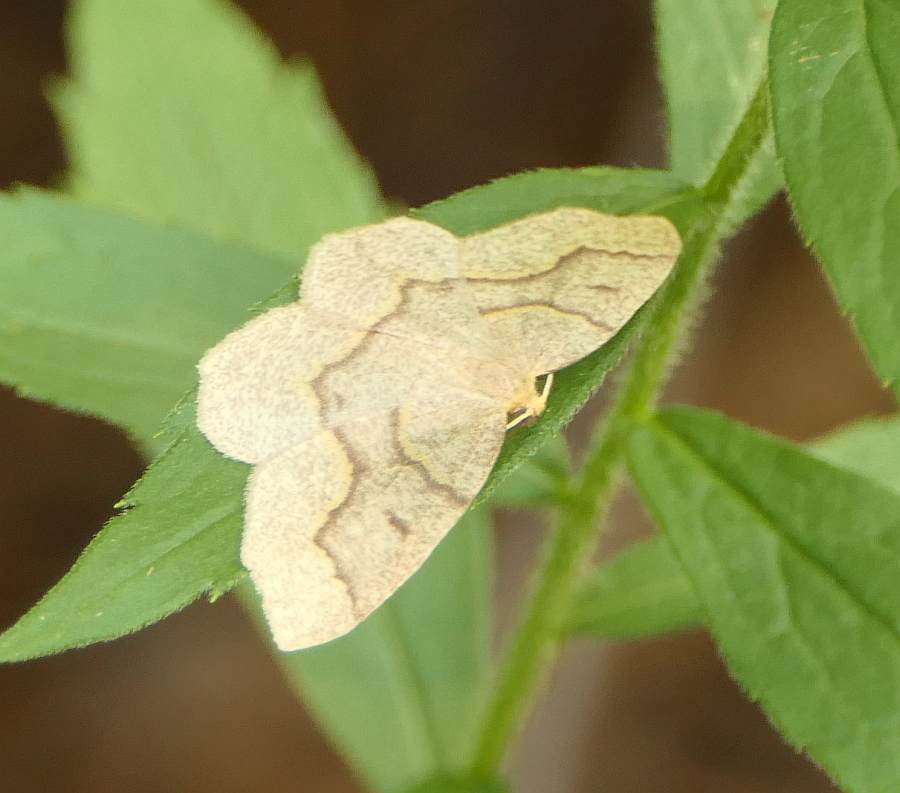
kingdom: Animalia
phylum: Arthropoda
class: Insecta
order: Lepidoptera
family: Geometridae
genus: Lambdina
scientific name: Lambdina fiscellaria
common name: Hemlock looper
